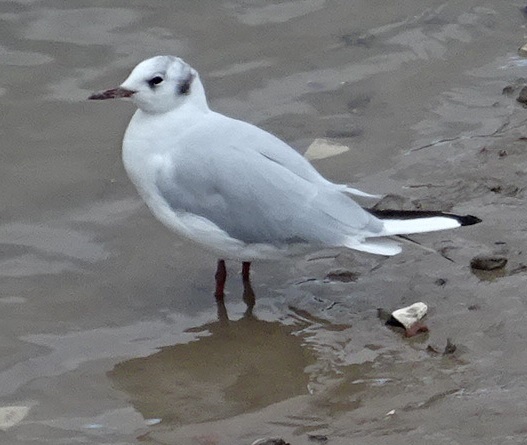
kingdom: Animalia
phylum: Chordata
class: Aves
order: Charadriiformes
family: Laridae
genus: Chroicocephalus
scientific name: Chroicocephalus ridibundus
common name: Black-headed gull
